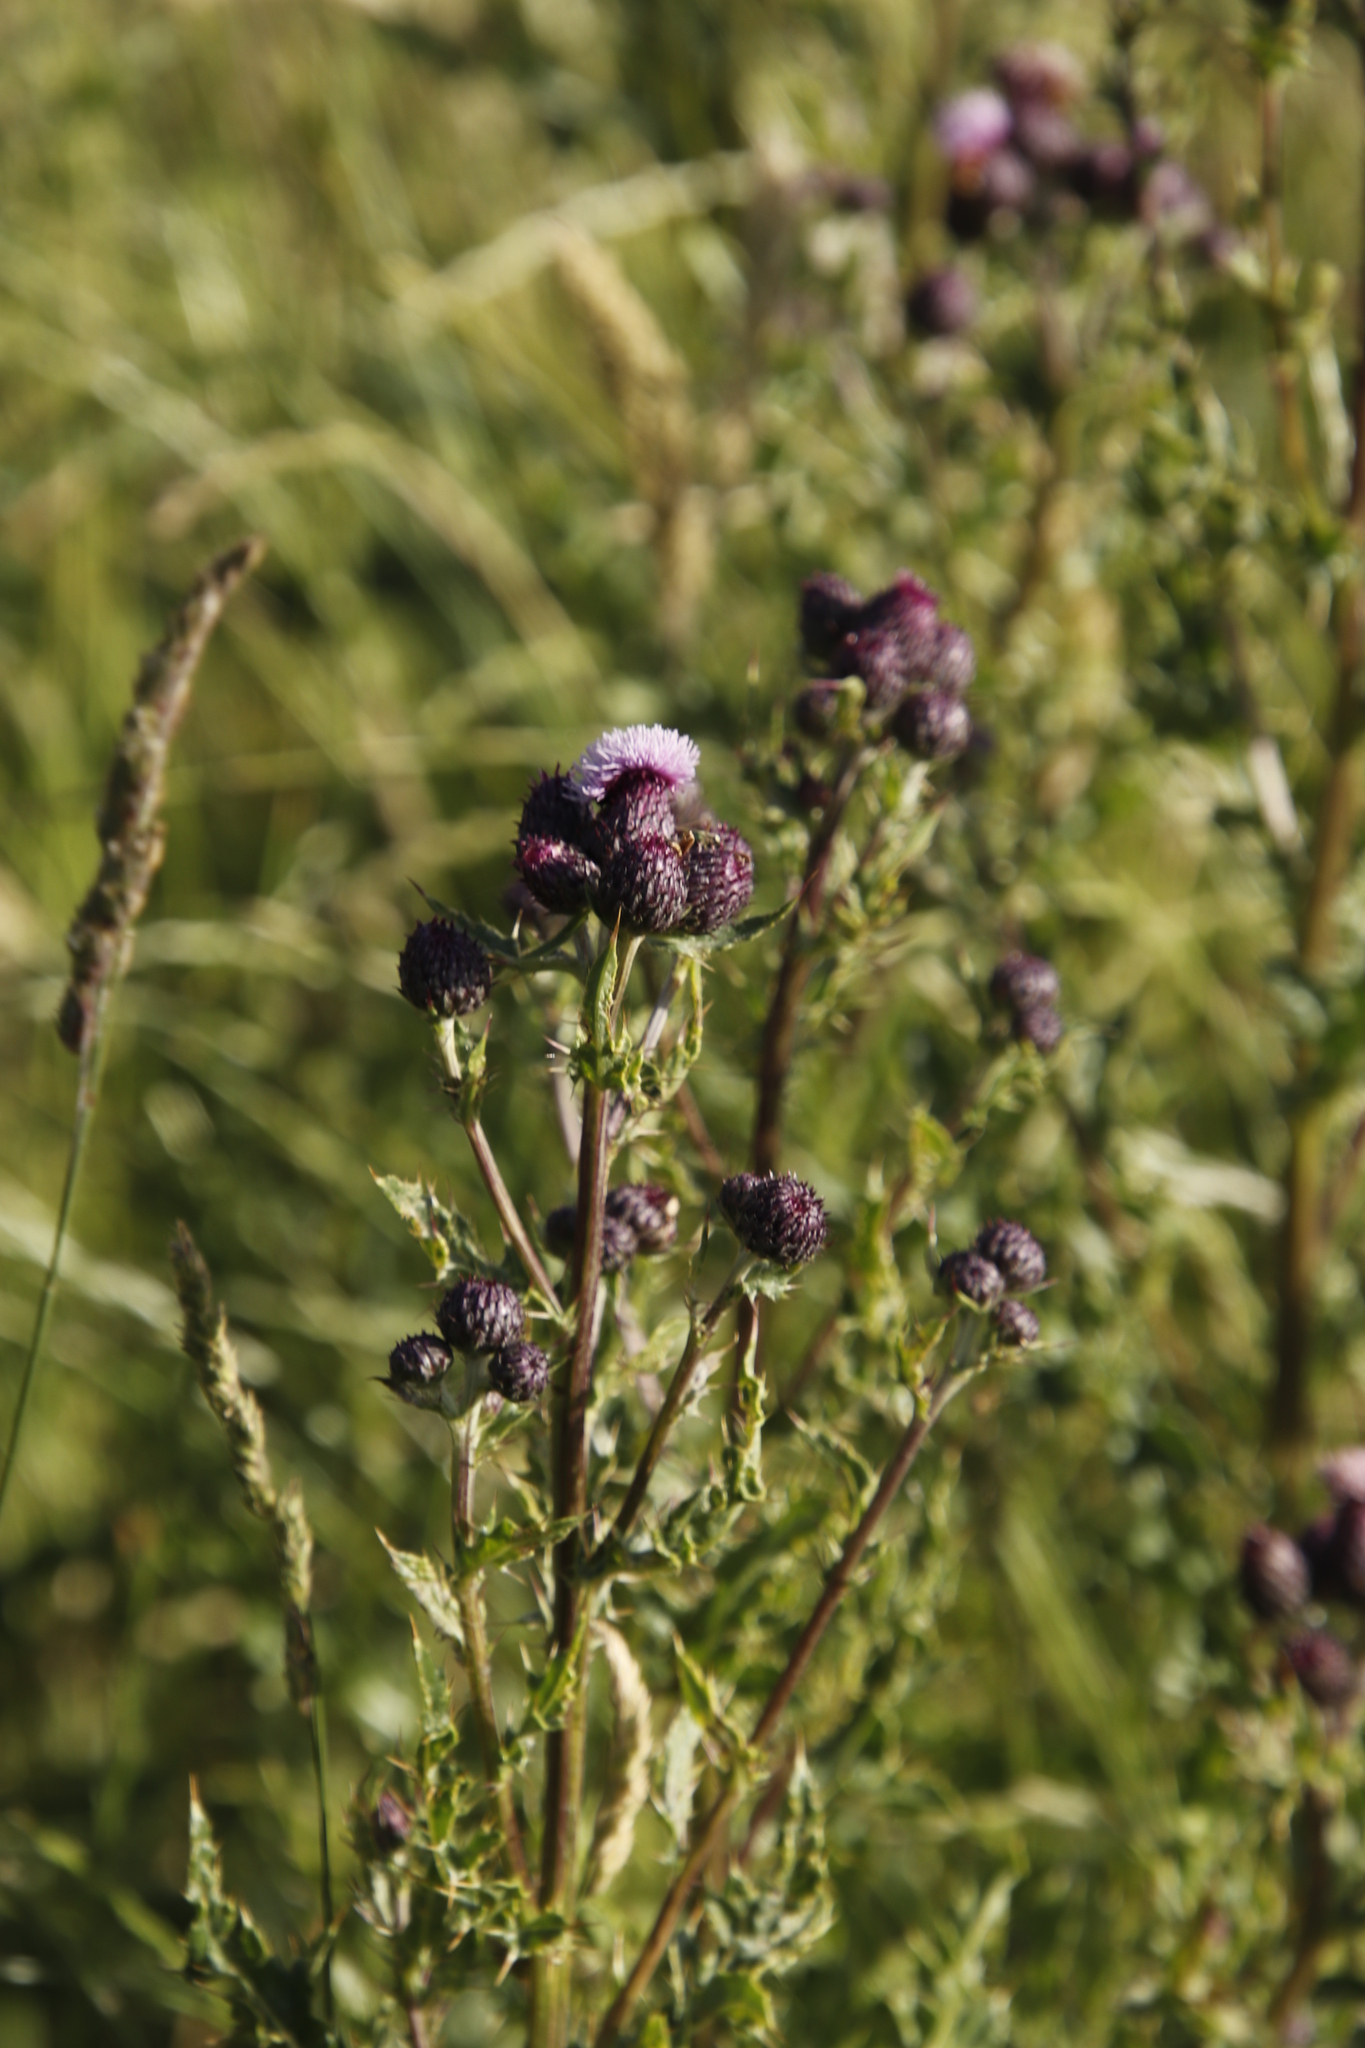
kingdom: Plantae
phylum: Tracheophyta
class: Magnoliopsida
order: Asterales
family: Asteraceae
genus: Cirsium
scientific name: Cirsium arvense
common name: Creeping thistle
